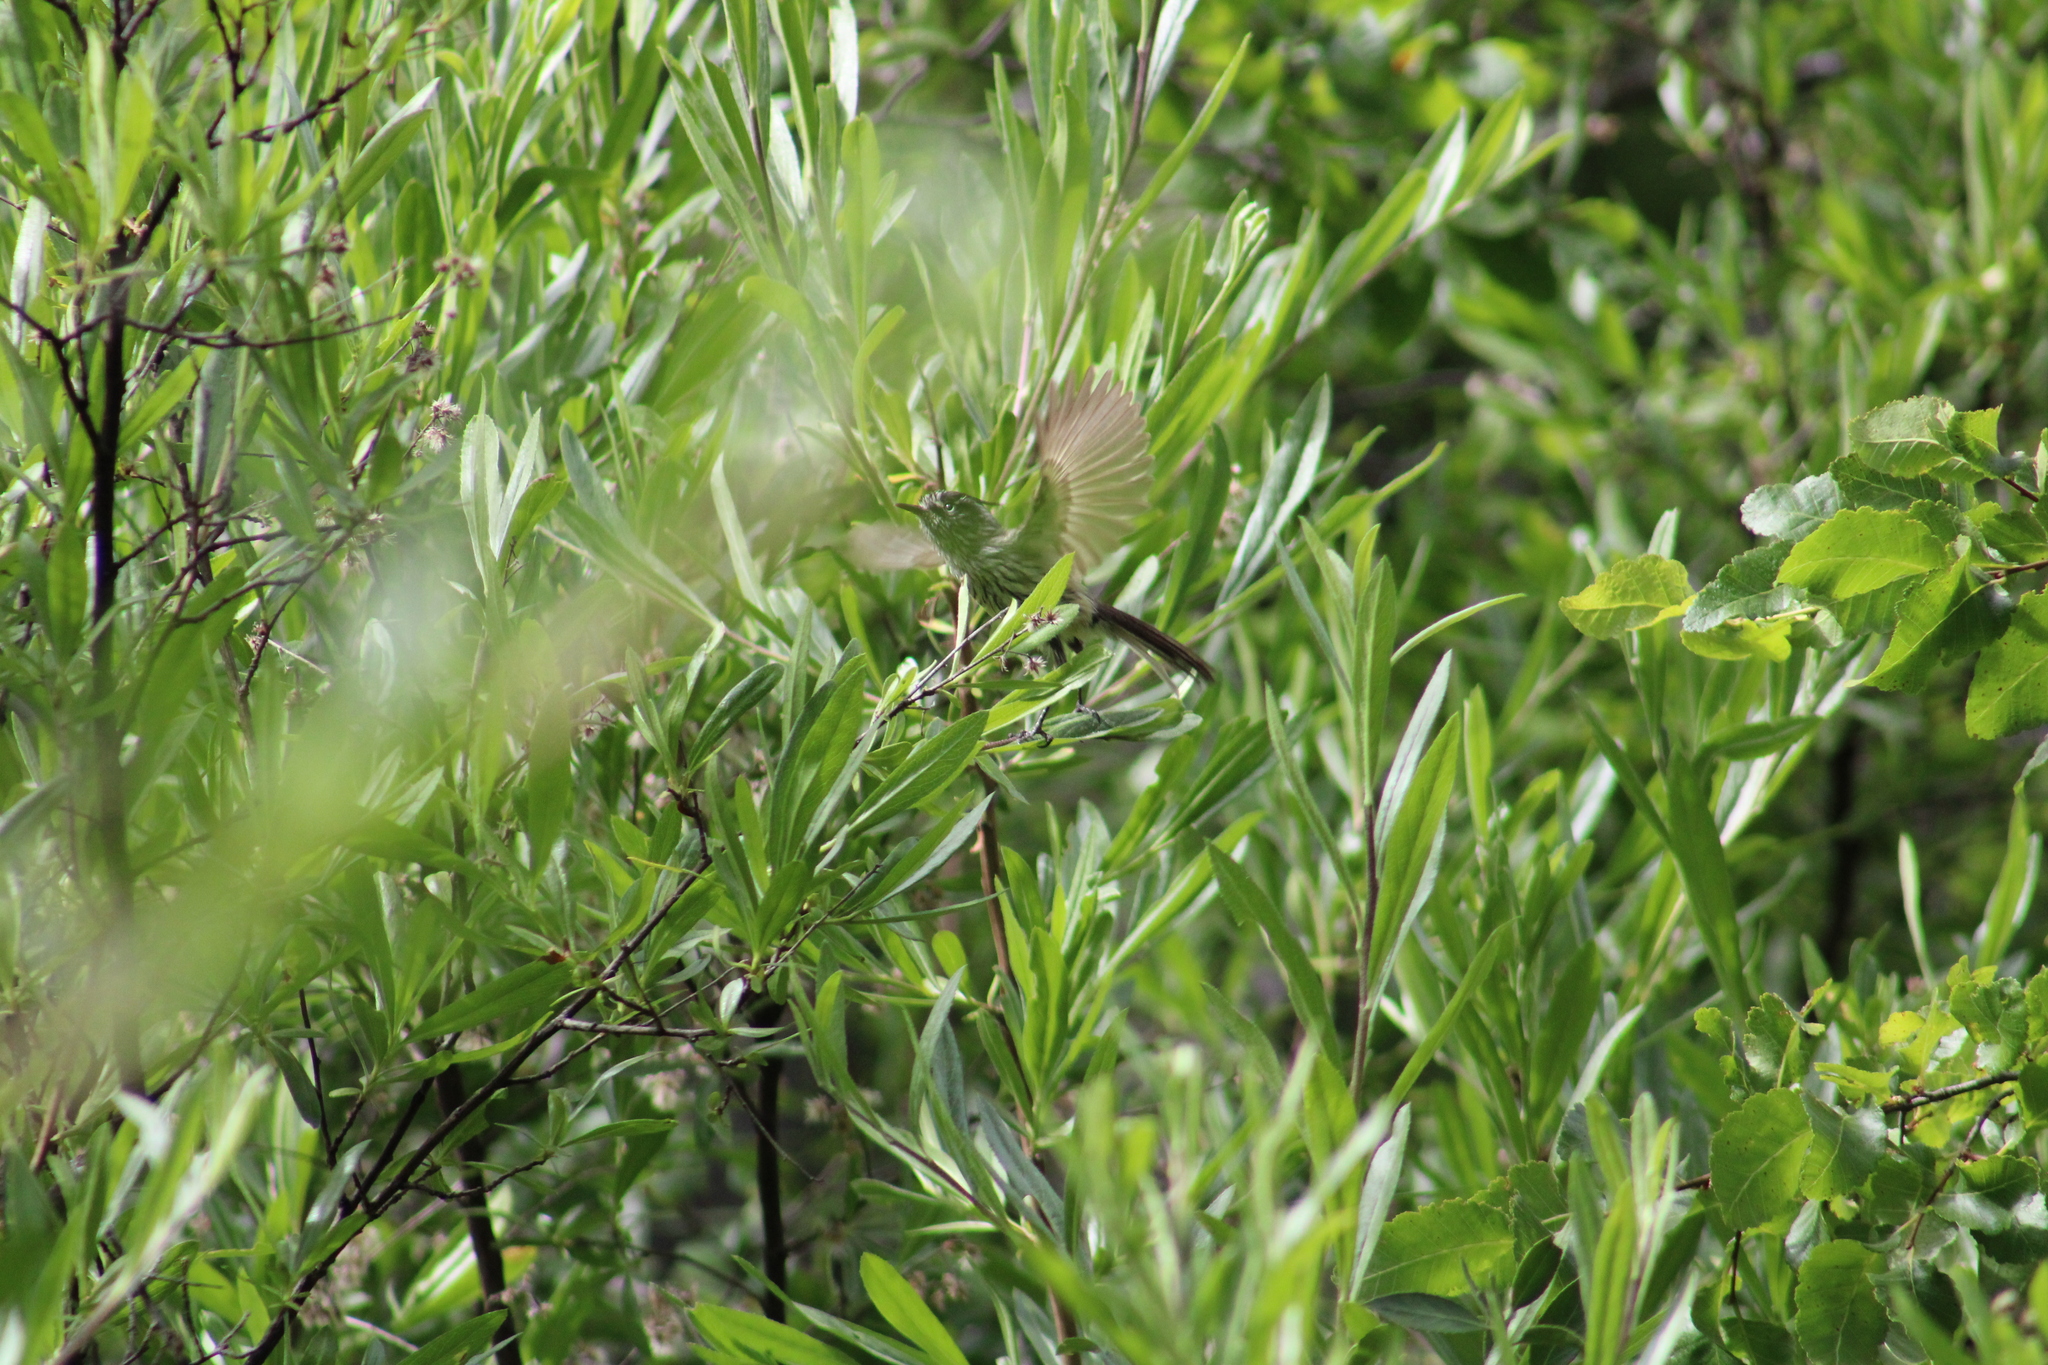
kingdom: Animalia
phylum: Chordata
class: Aves
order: Passeriformes
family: Tyrannidae
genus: Anairetes
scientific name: Anairetes parulus
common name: Tufted tit-tyrant
